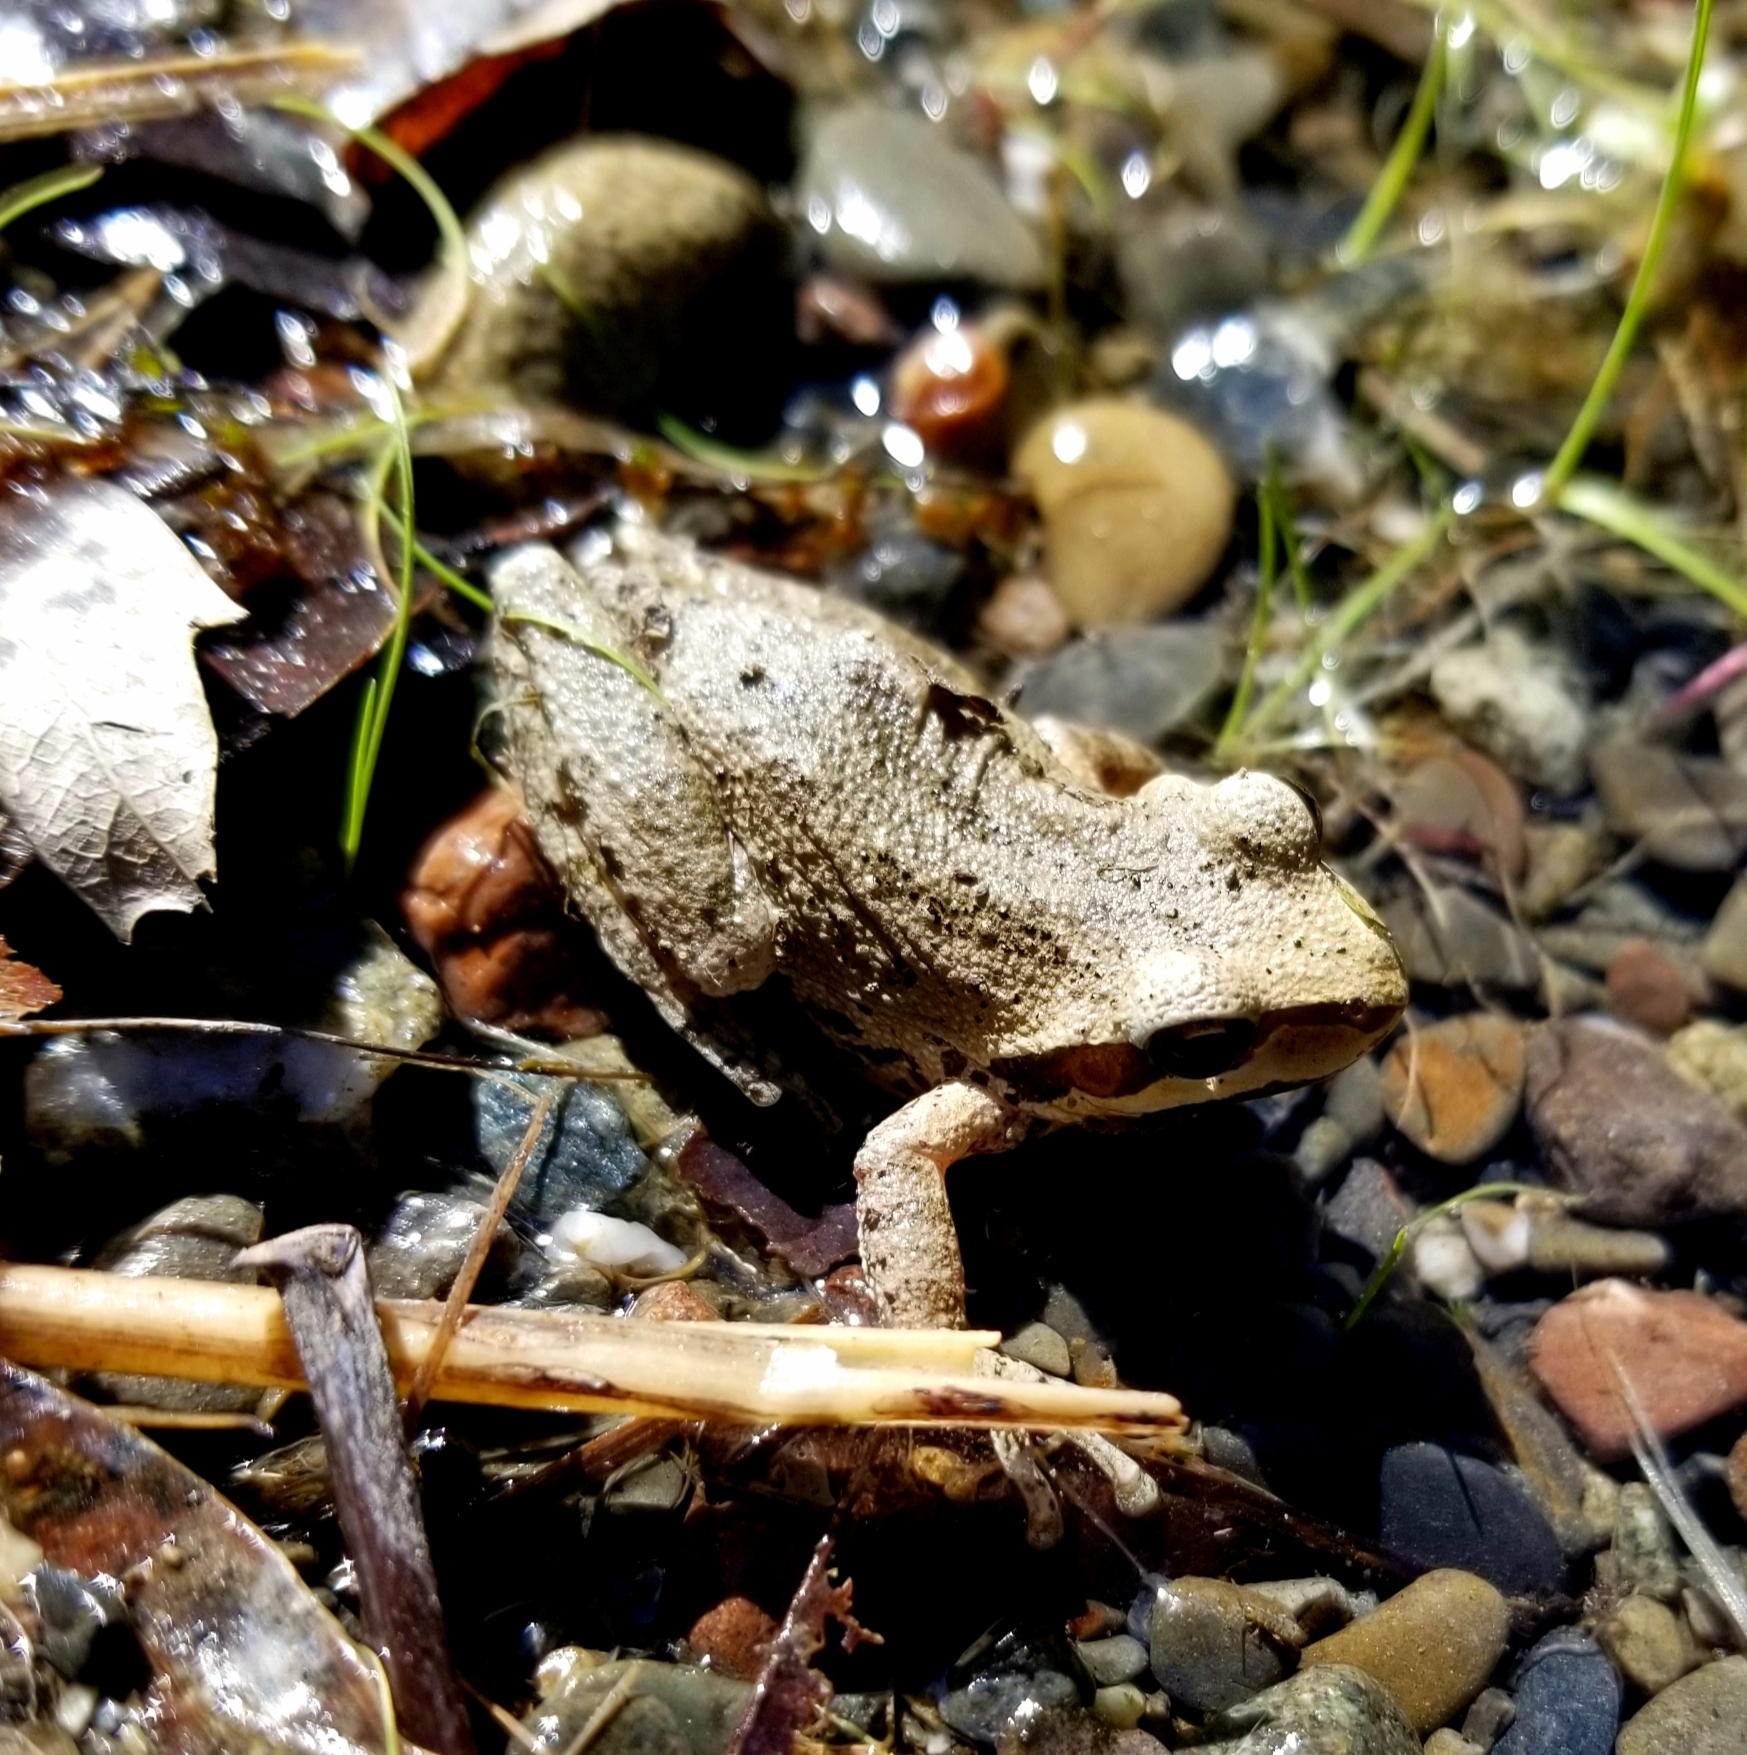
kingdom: Animalia
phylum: Chordata
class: Amphibia
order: Anura
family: Hylidae
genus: Pseudacris
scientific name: Pseudacris regilla
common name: Pacific chorus frog
